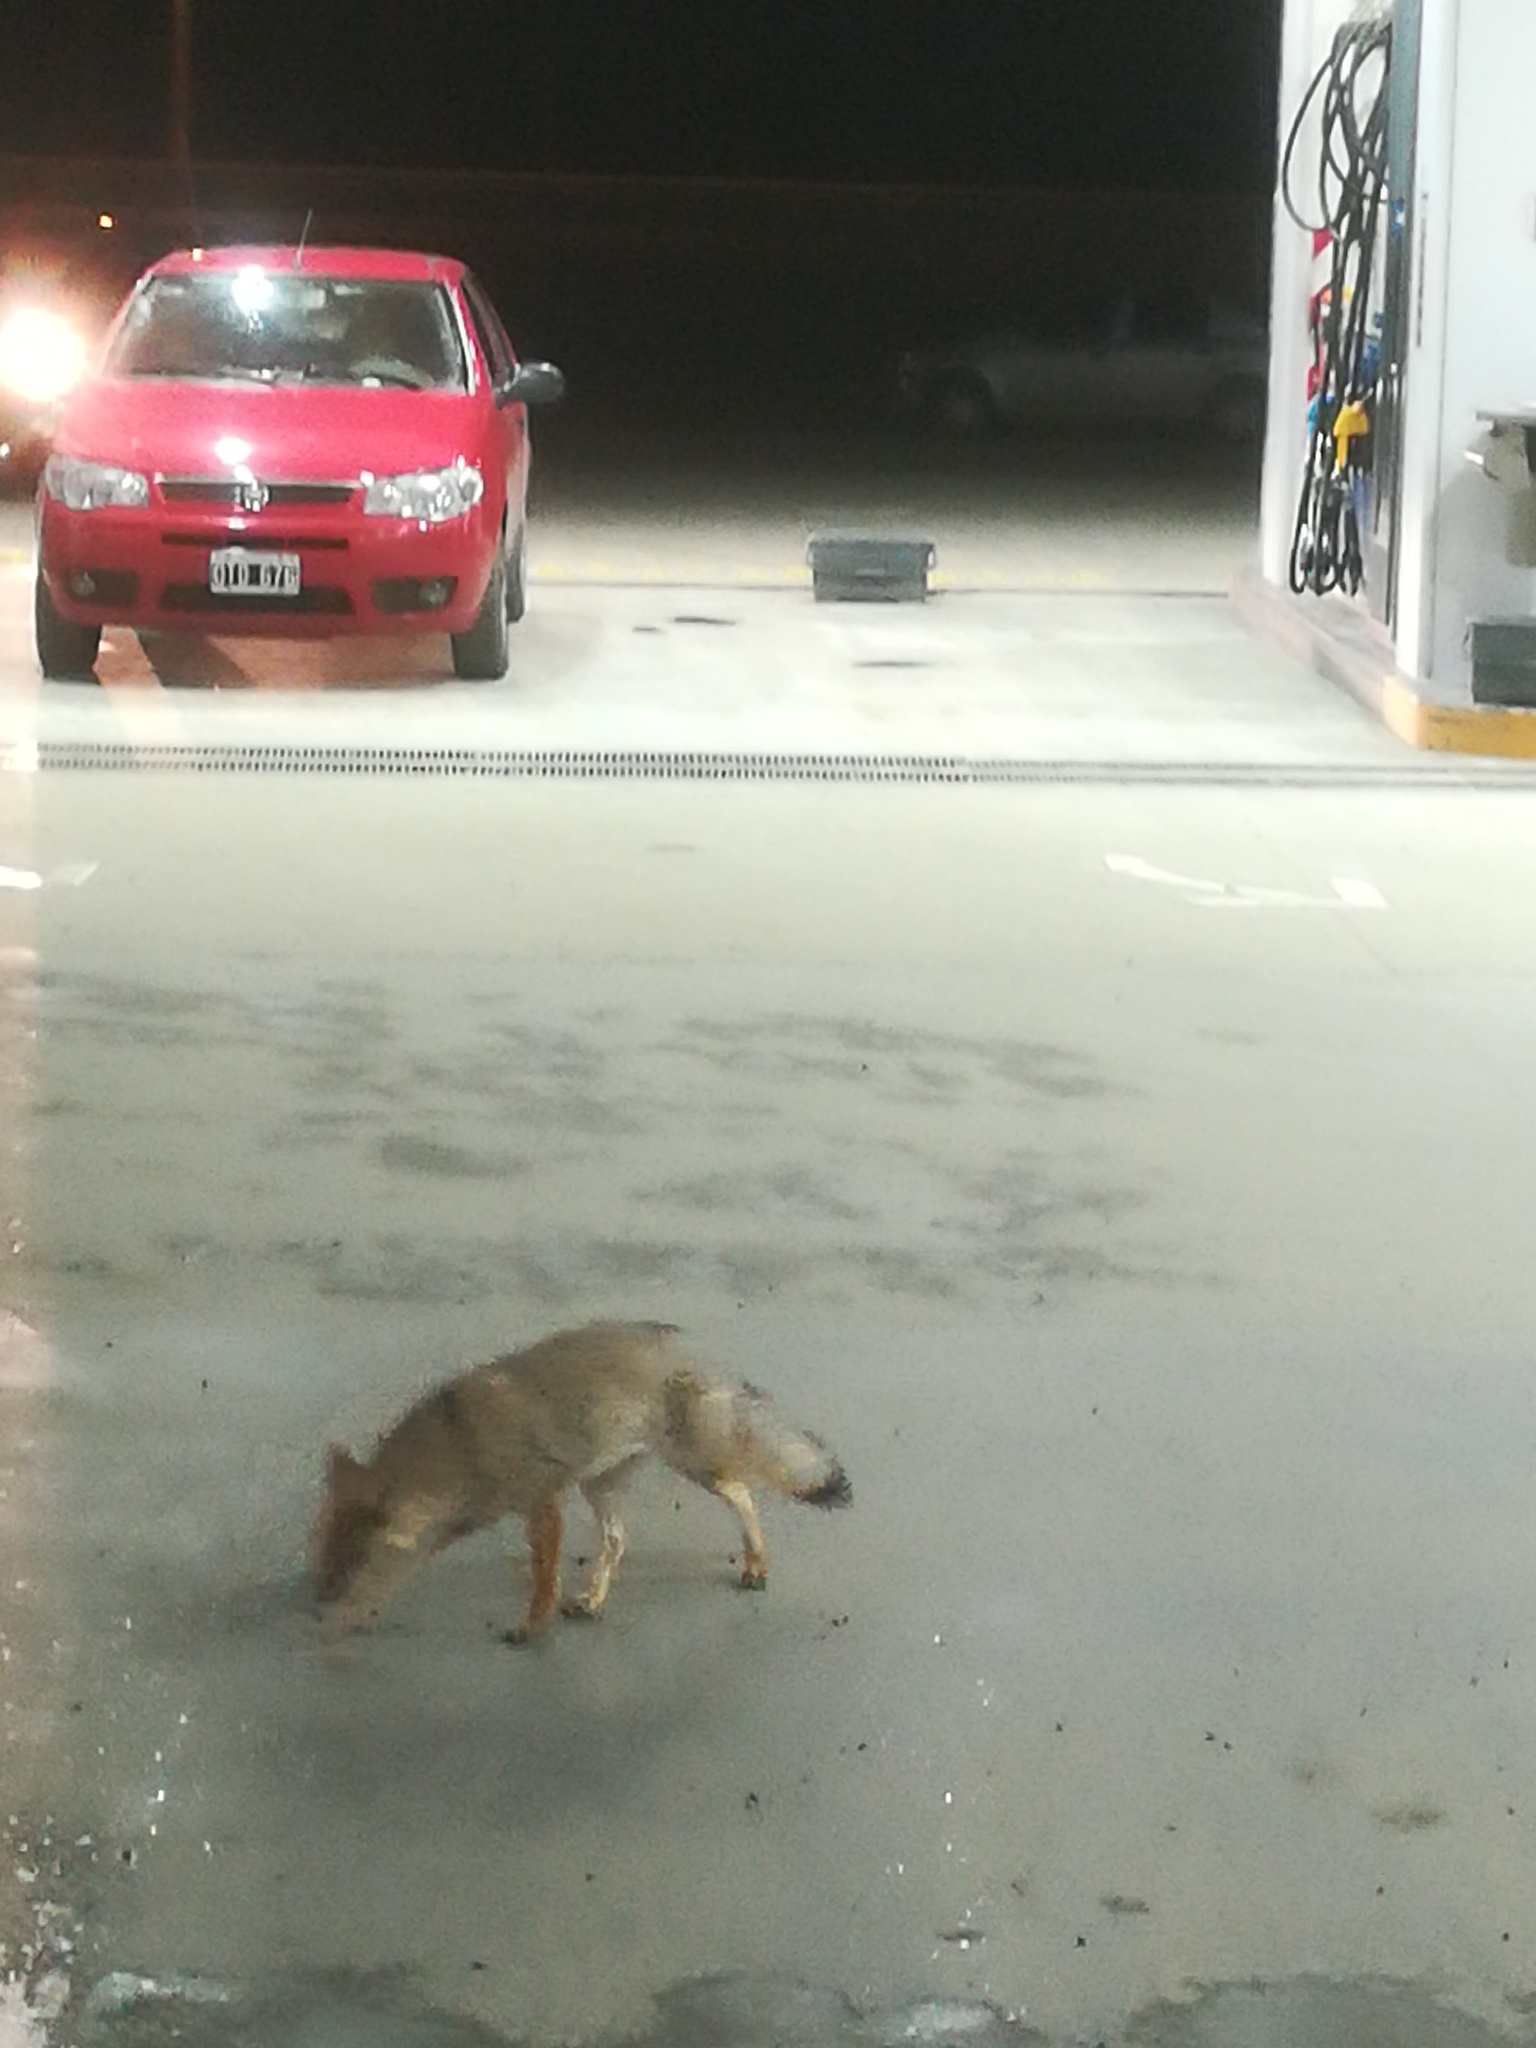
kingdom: Animalia
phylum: Chordata
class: Mammalia
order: Carnivora
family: Canidae
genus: Lycalopex
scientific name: Lycalopex gymnocercus
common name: Pampas fox
